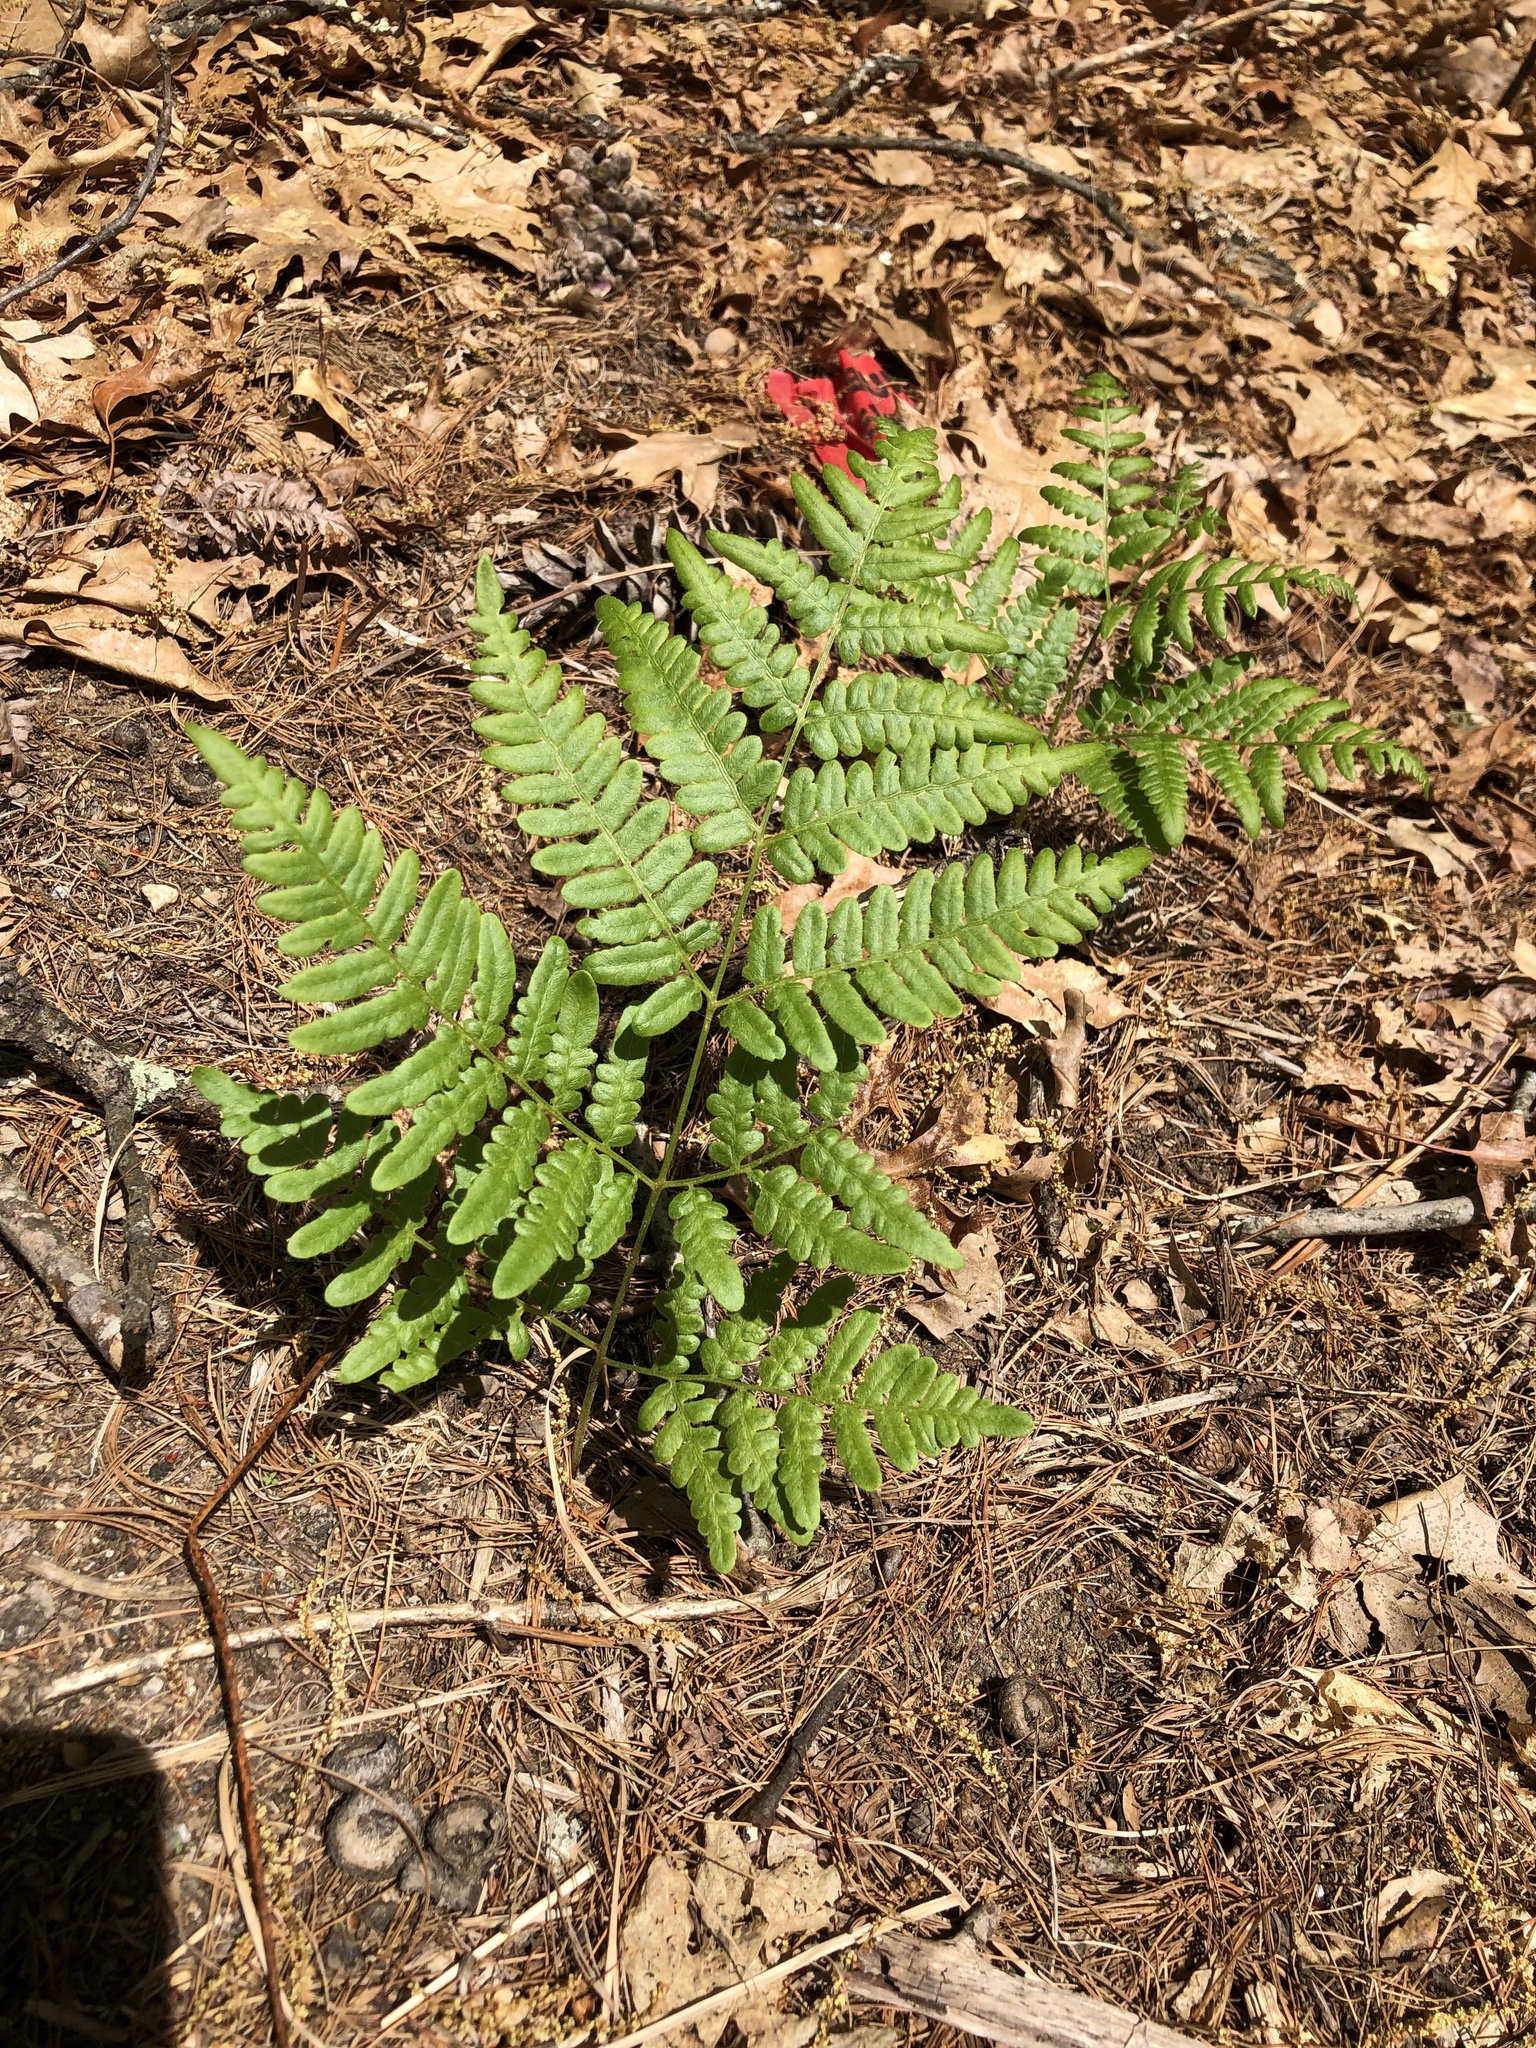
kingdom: Plantae
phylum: Tracheophyta
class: Polypodiopsida
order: Polypodiales
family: Dennstaedtiaceae
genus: Pteridium
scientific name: Pteridium aquilinum
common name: Bracken
